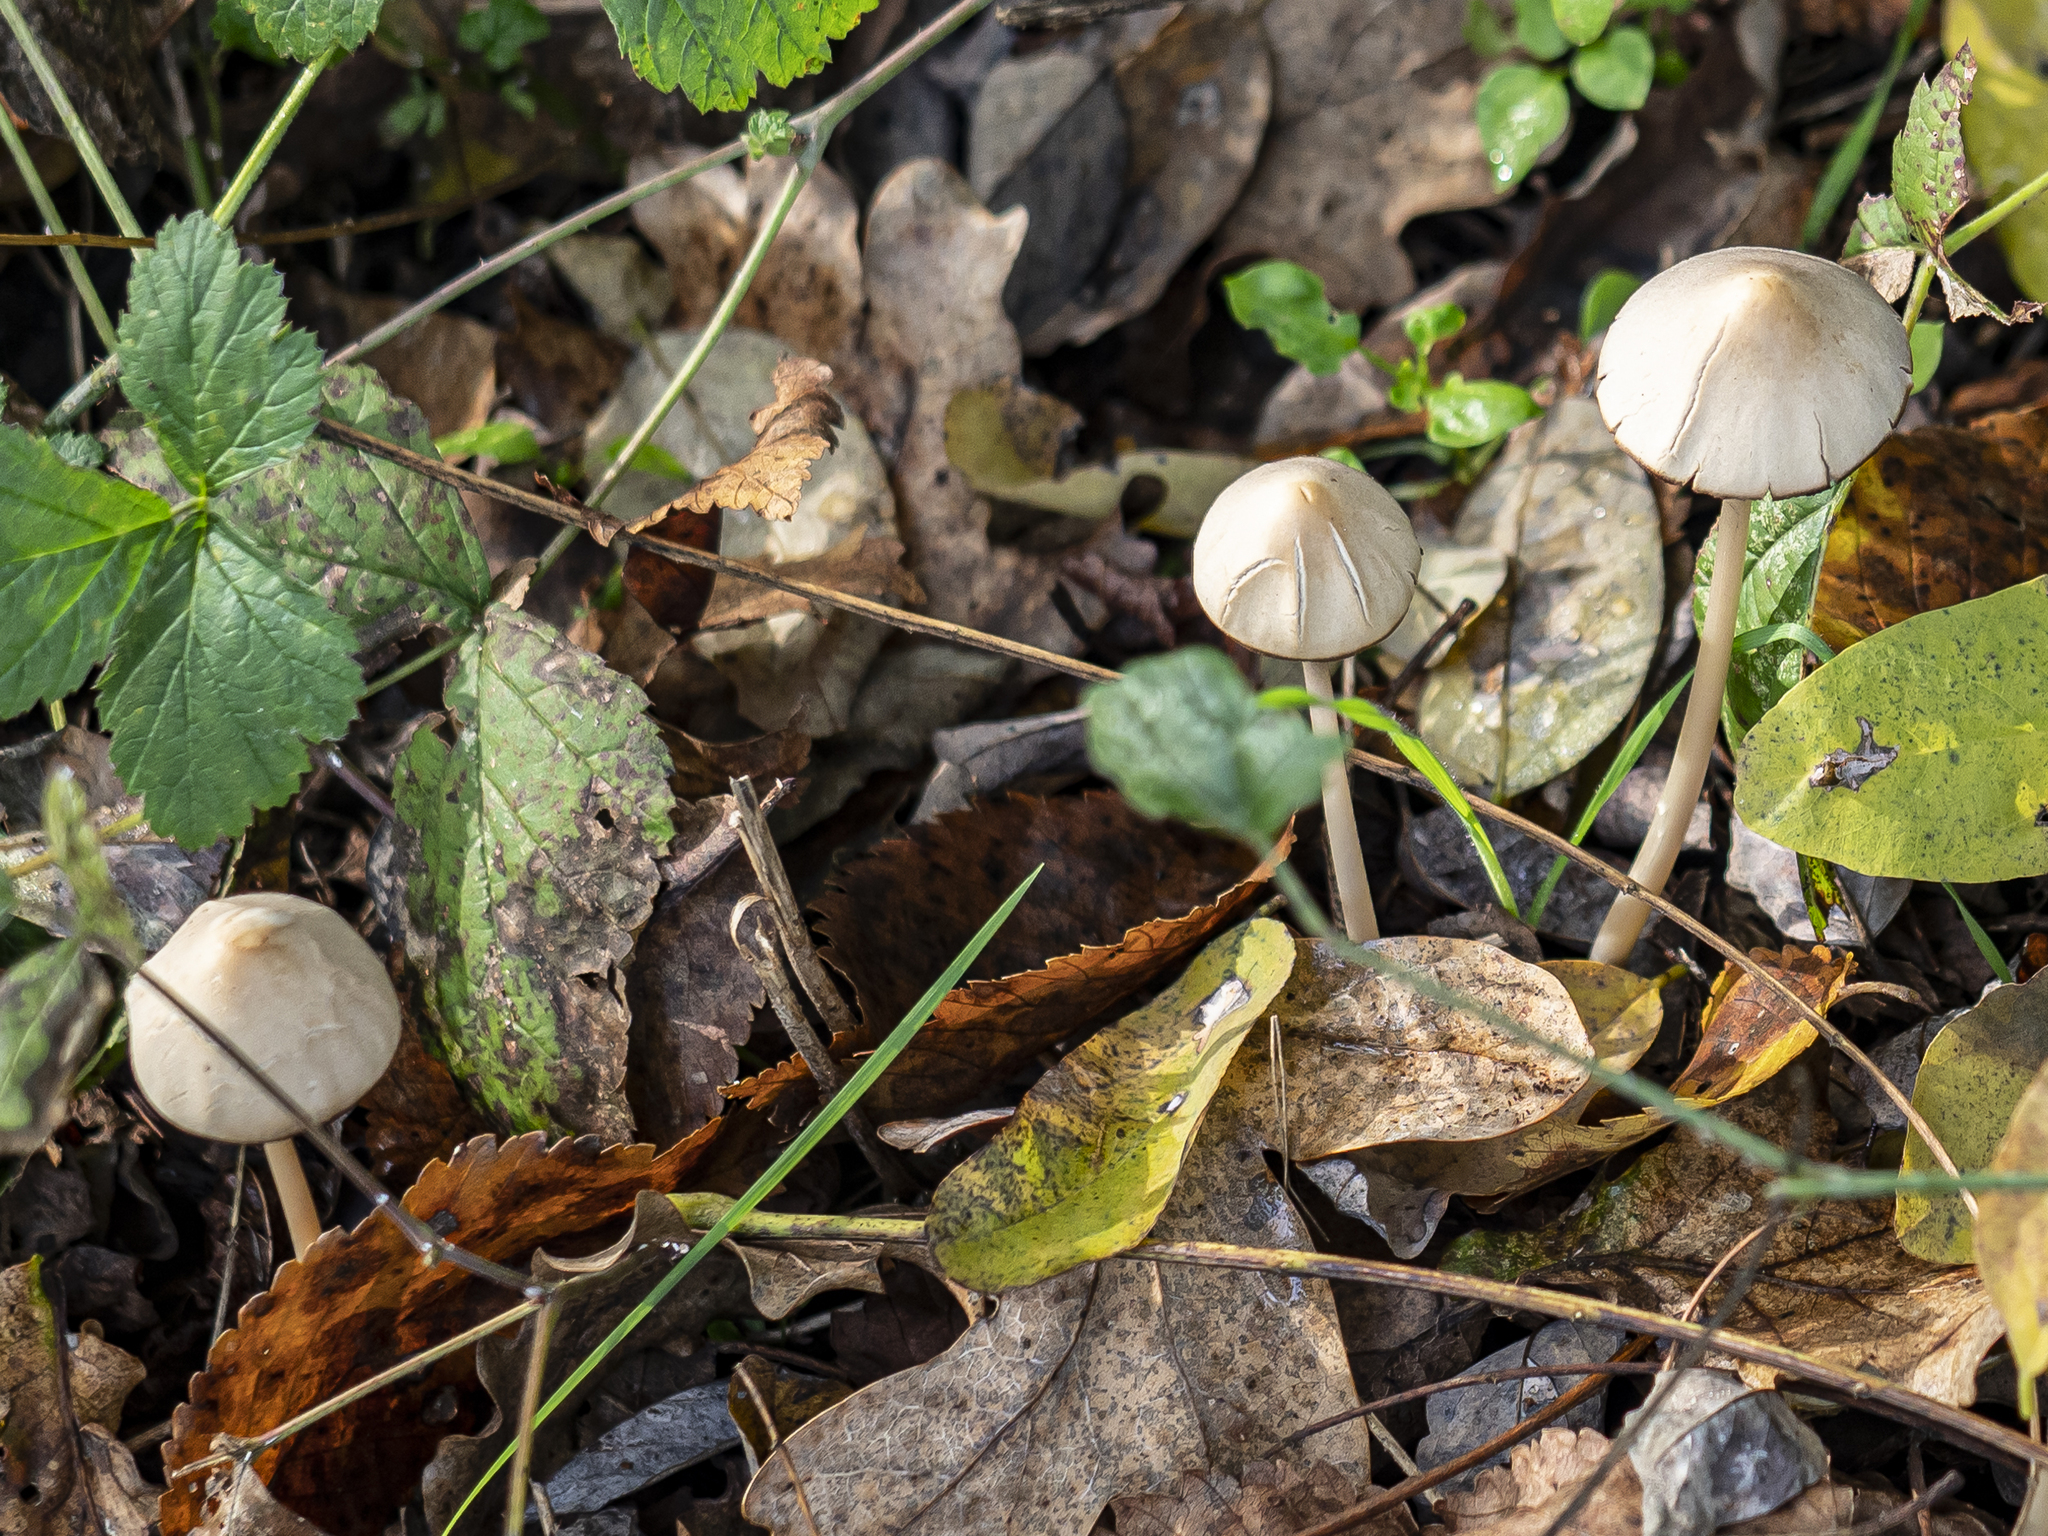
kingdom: Fungi
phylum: Basidiomycota
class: Agaricomycetes
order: Agaricales
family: Psathyrellaceae
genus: Parasola
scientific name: Parasola conopilea
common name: Conical brittlestem
